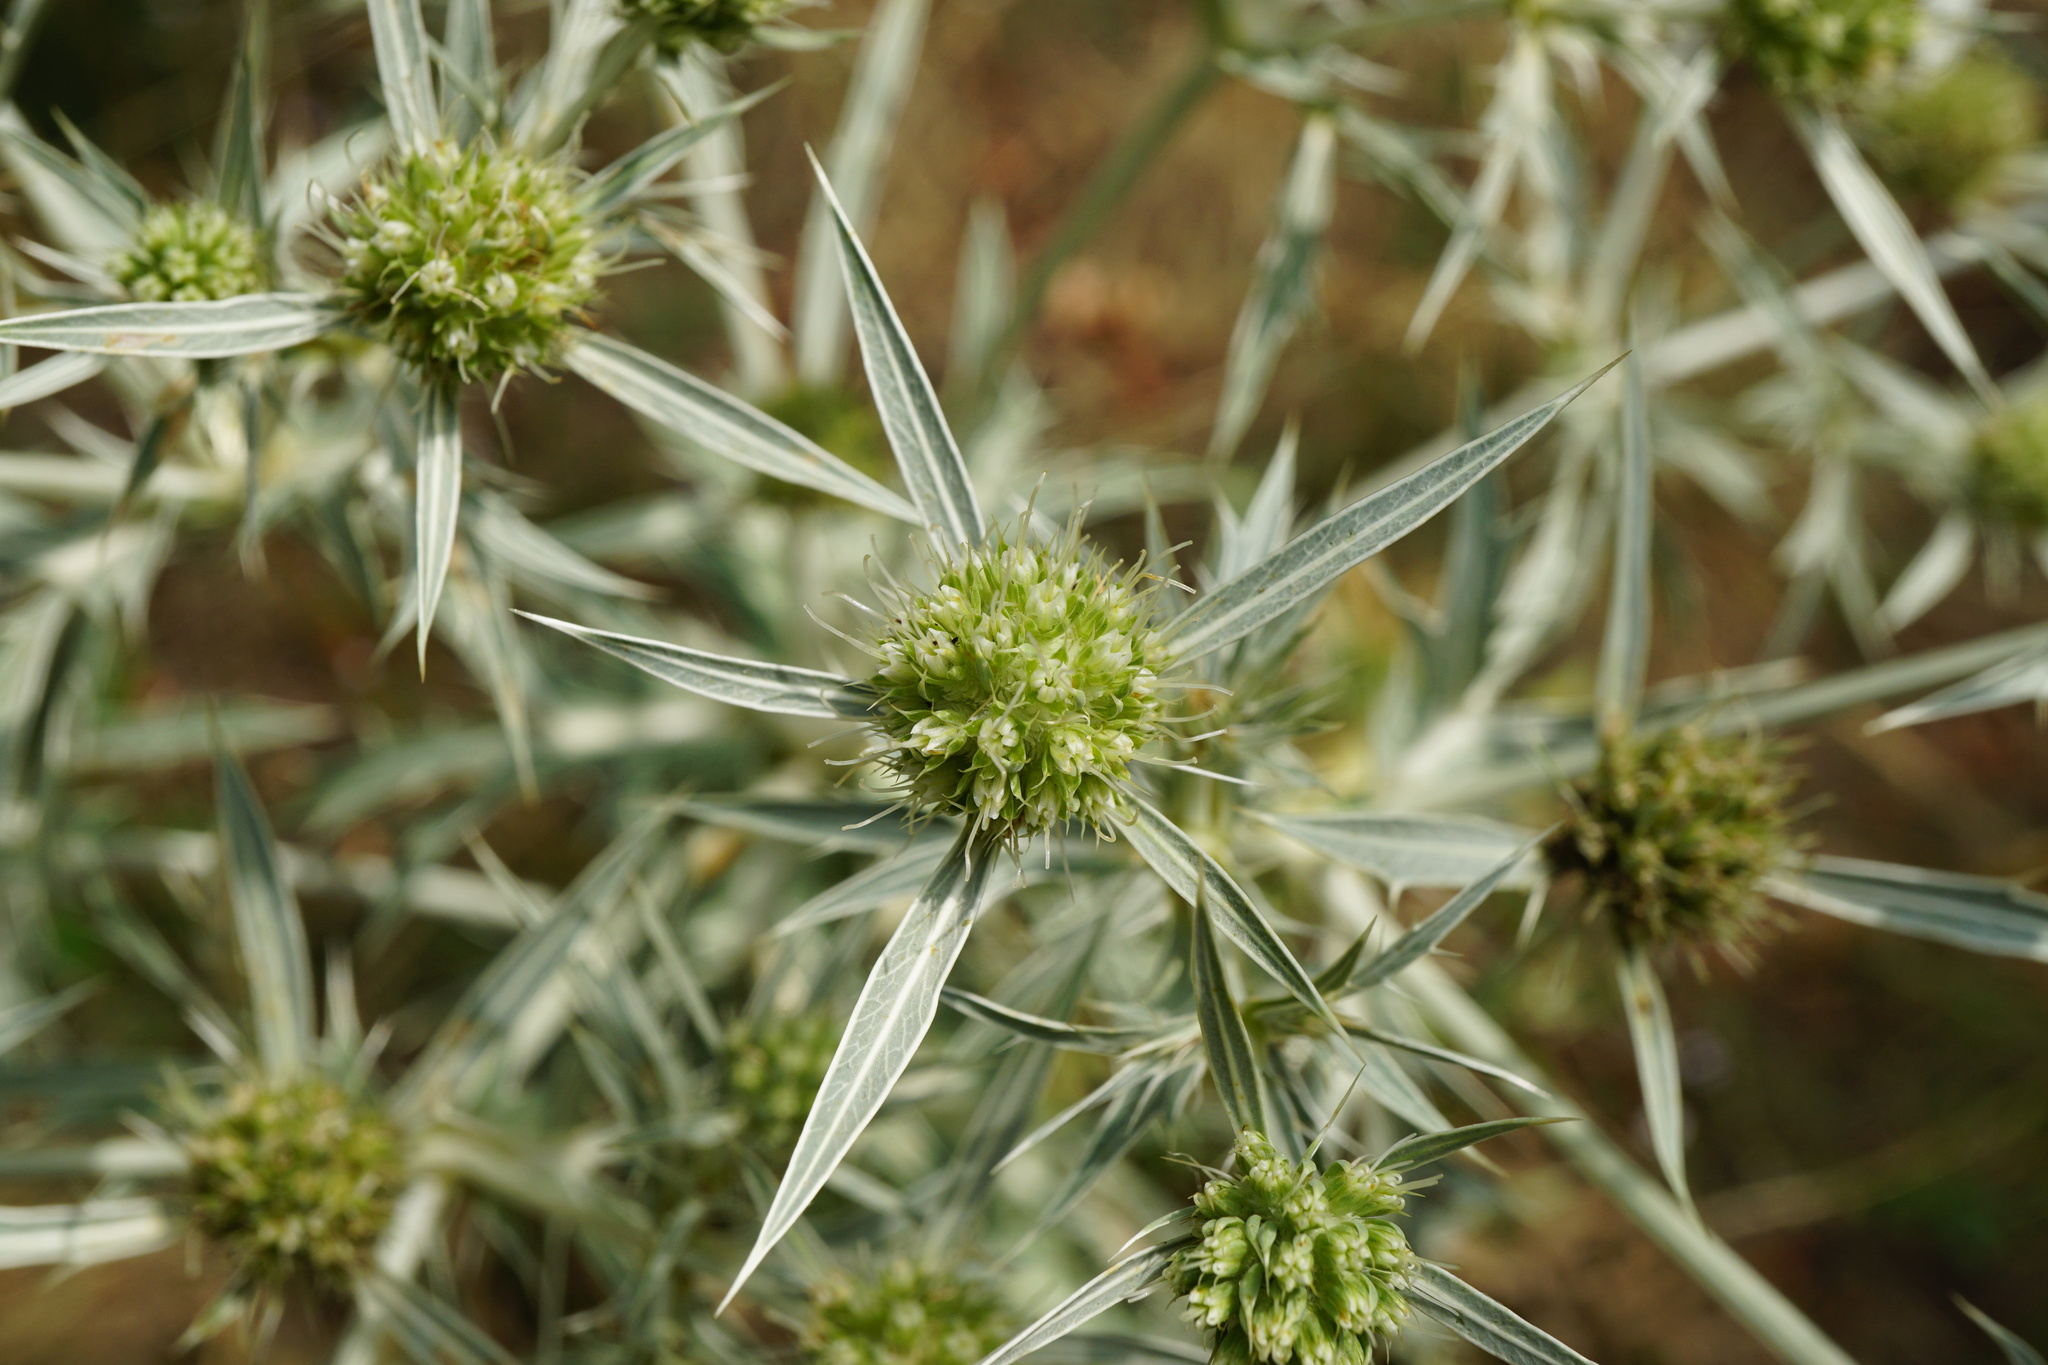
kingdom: Plantae
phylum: Tracheophyta
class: Magnoliopsida
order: Apiales
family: Apiaceae
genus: Eryngium
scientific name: Eryngium campestre
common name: Field eryngo
